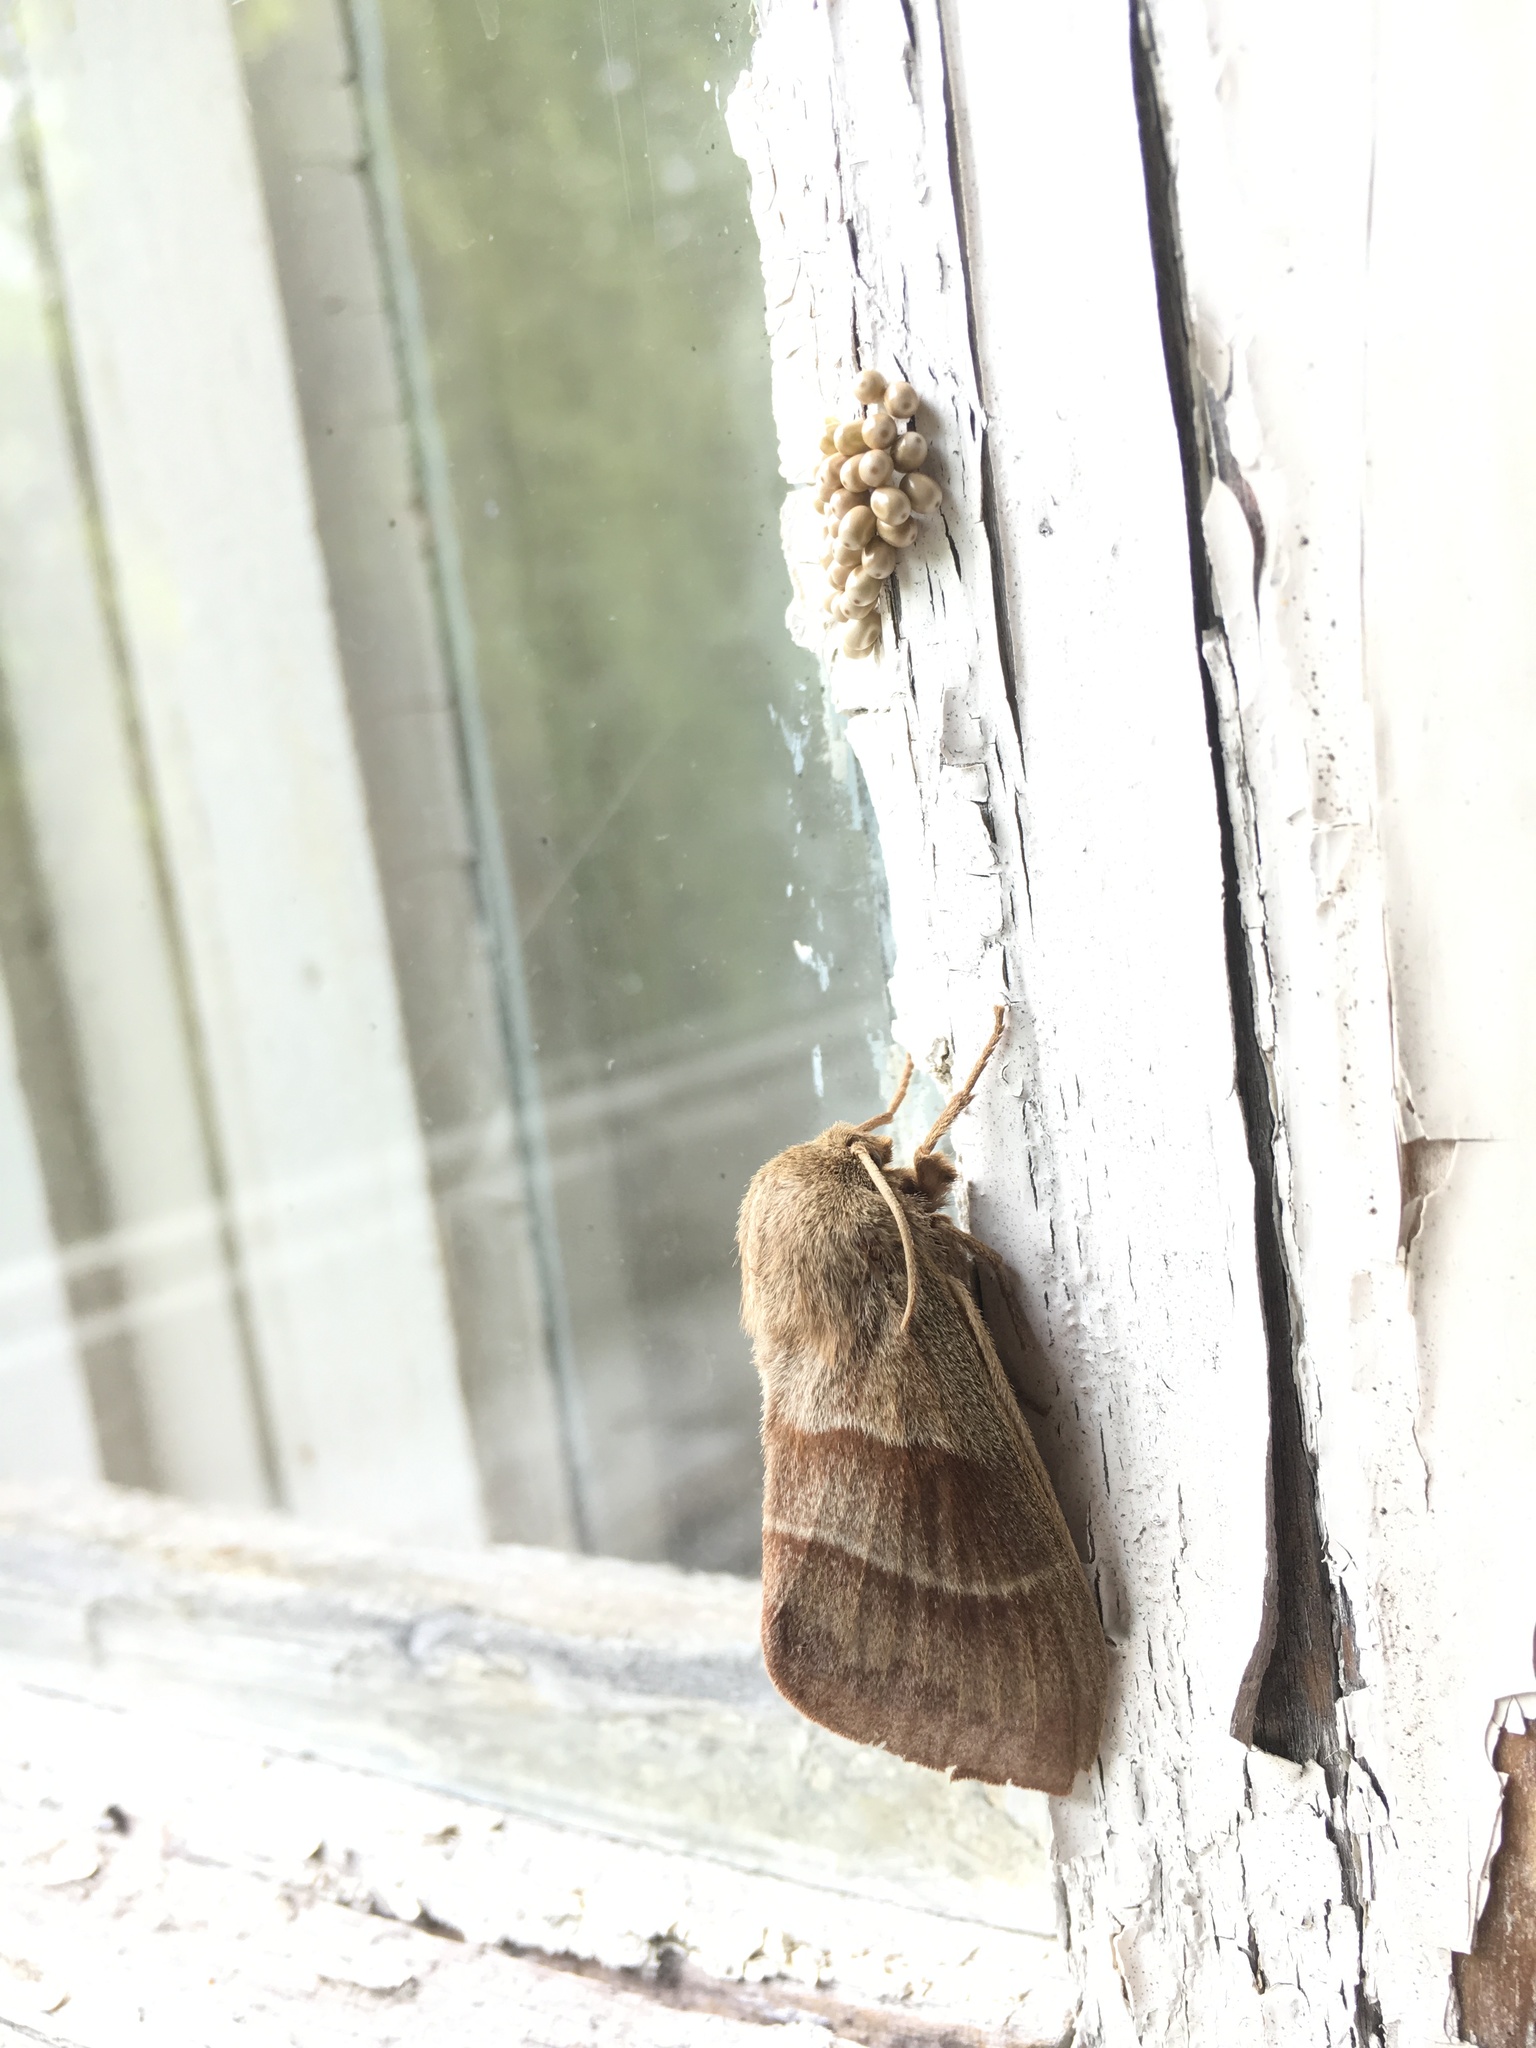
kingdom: Animalia
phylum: Arthropoda
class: Insecta
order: Lepidoptera
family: Lasiocampidae
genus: Macrothylacia
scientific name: Macrothylacia rubi
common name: Fox moth
